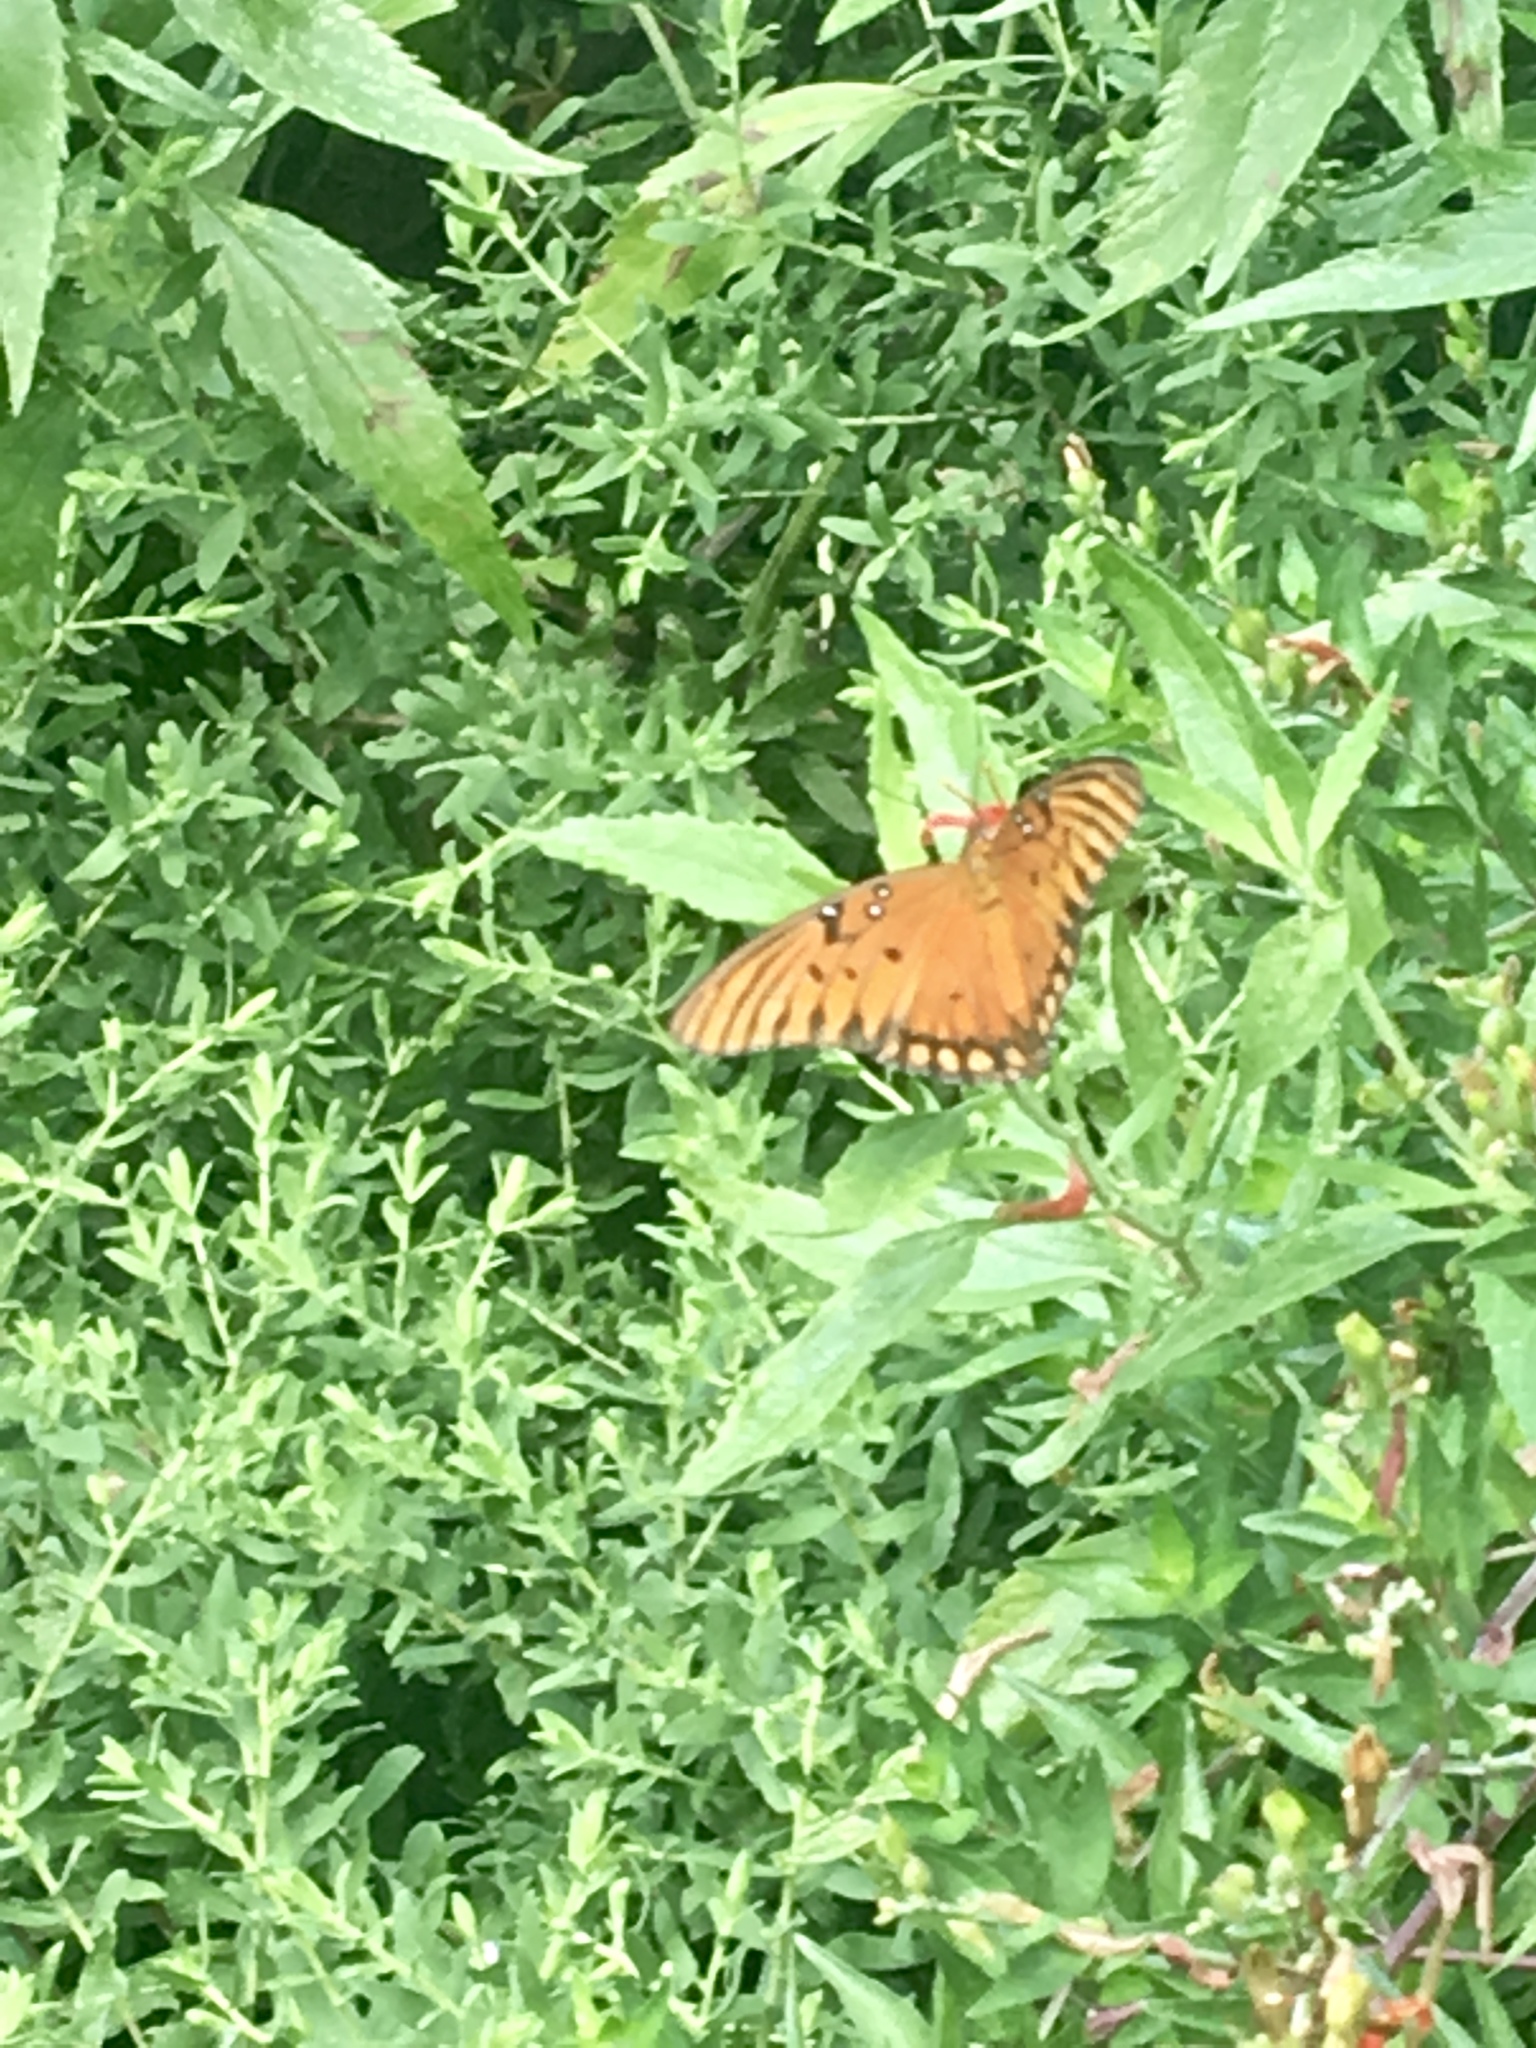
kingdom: Animalia
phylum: Arthropoda
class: Insecta
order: Lepidoptera
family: Nymphalidae
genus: Dione
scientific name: Dione vanillae
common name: Gulf fritillary
